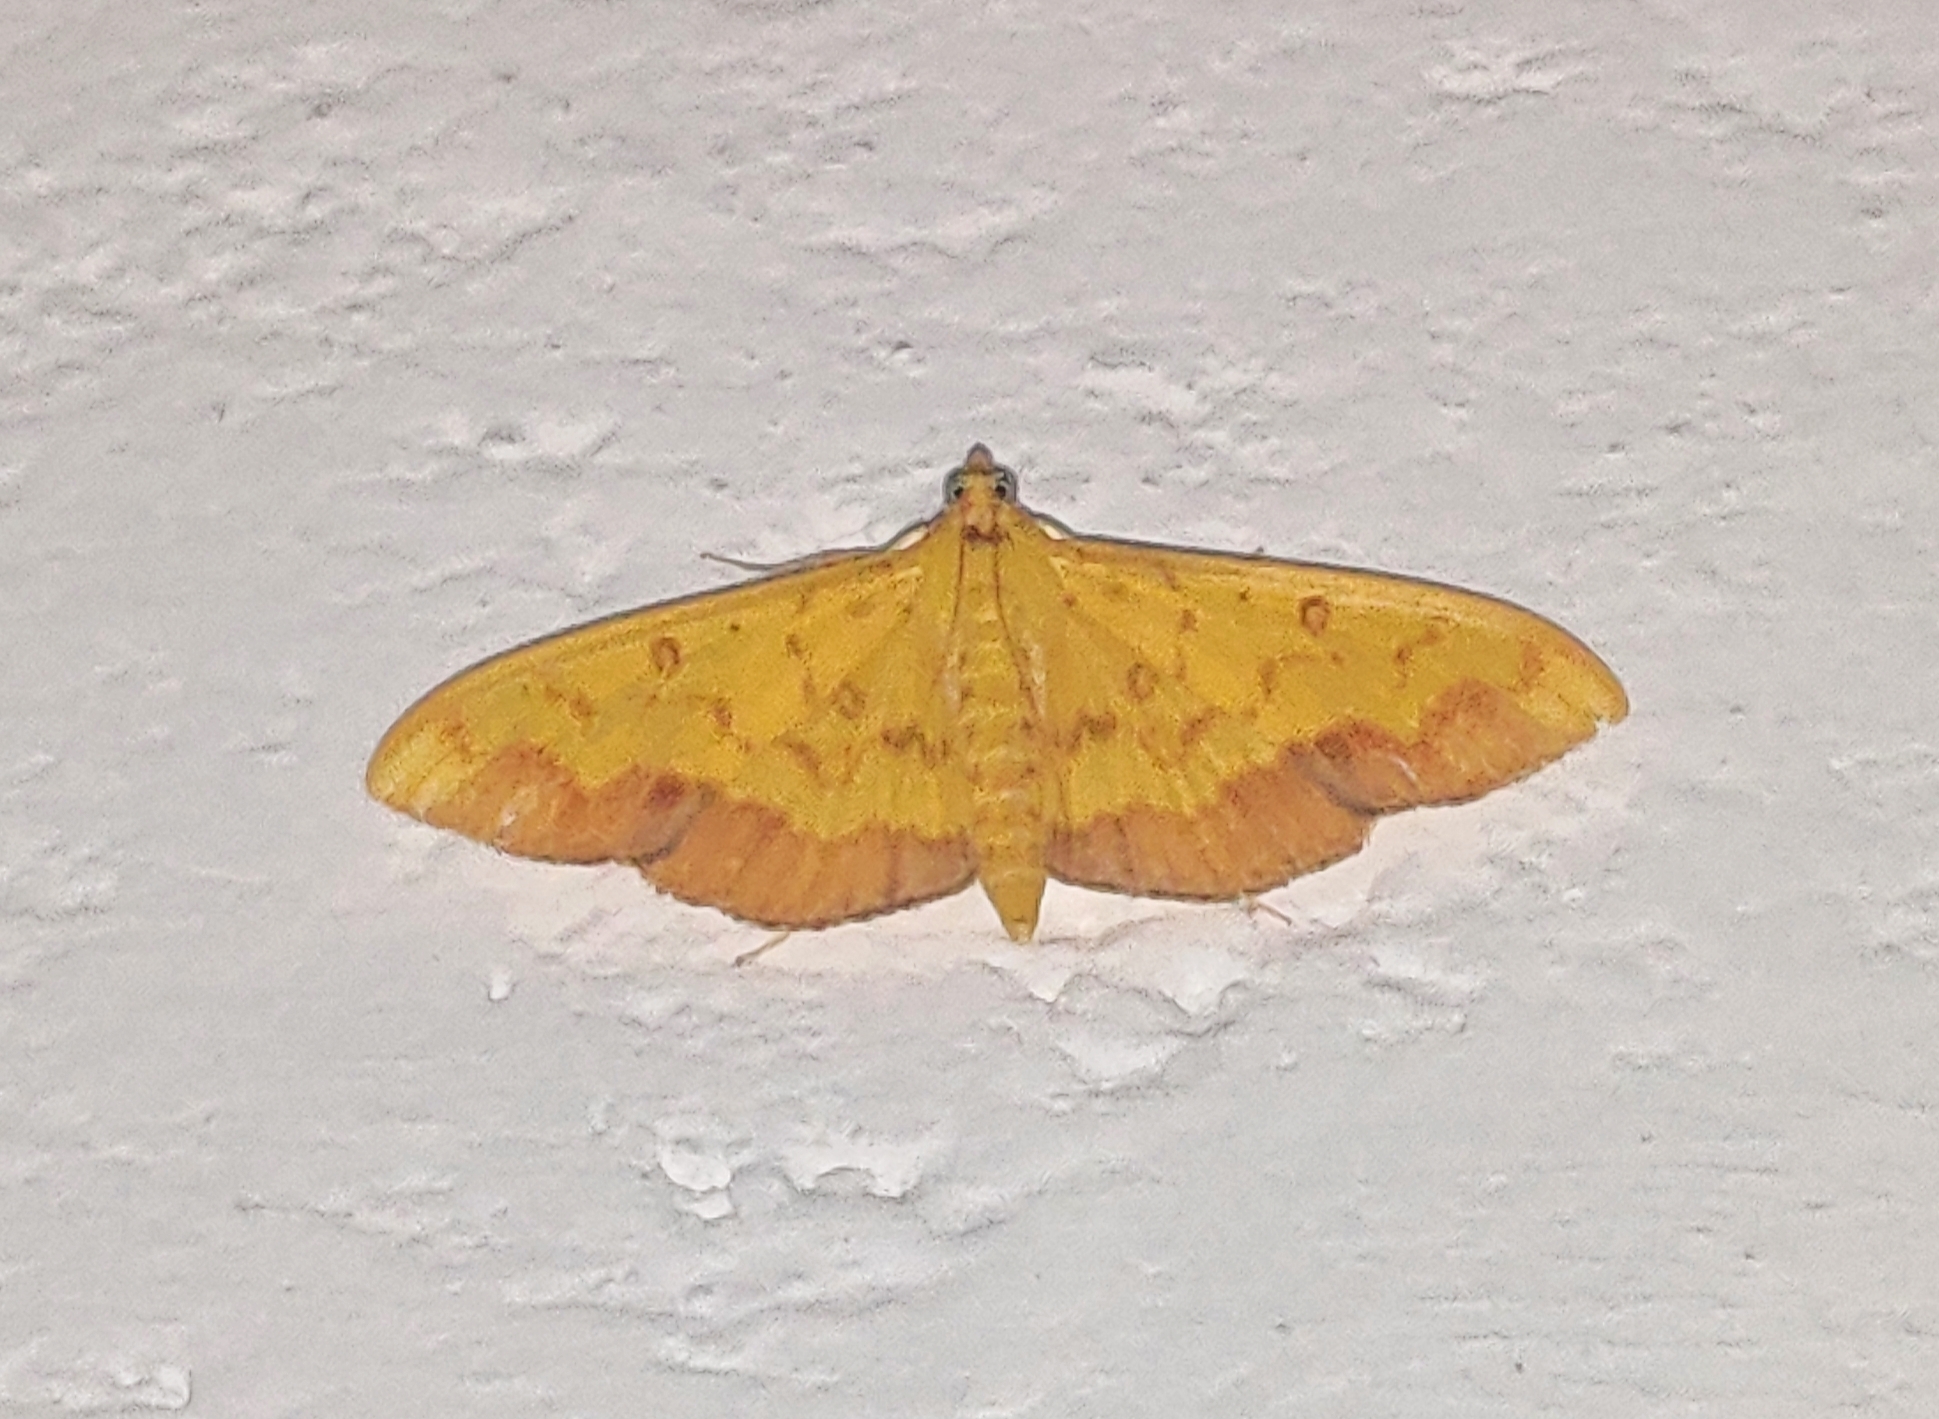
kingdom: Animalia
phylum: Arthropoda
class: Insecta
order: Lepidoptera
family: Crambidae
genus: Botyodes
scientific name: Botyodes asialis
